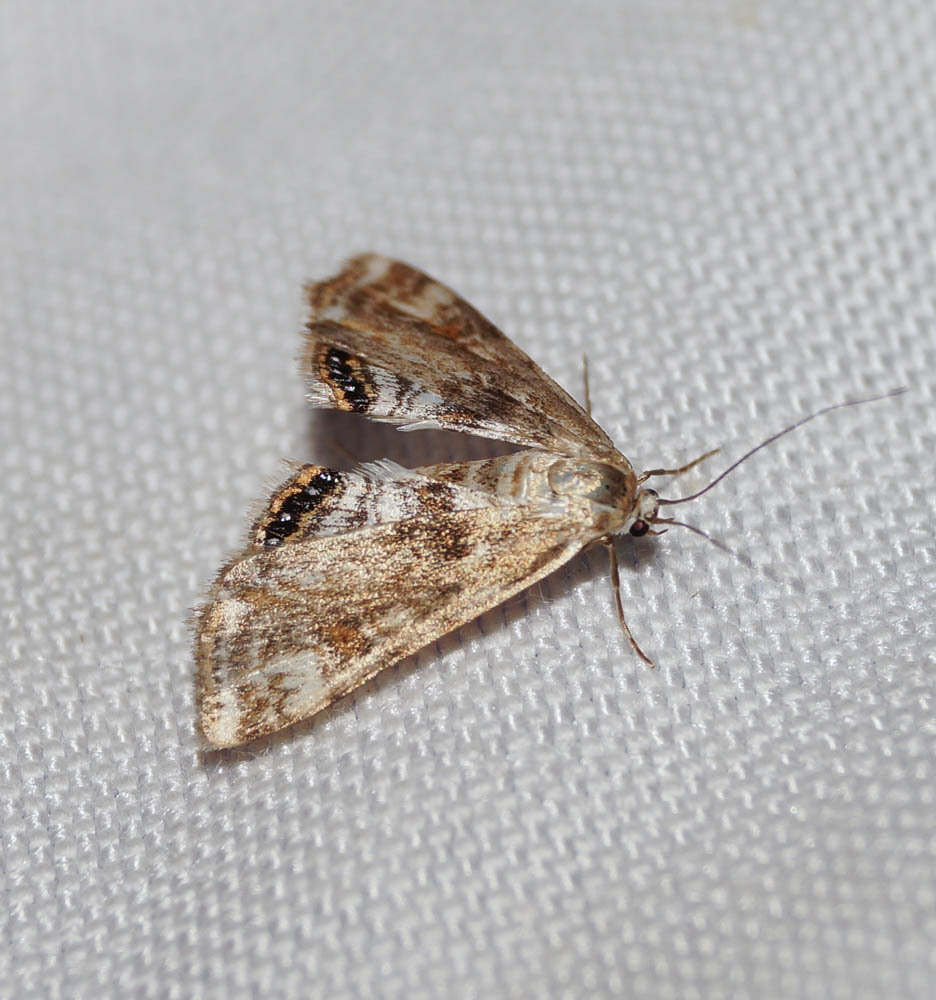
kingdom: Animalia
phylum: Arthropoda
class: Insecta
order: Lepidoptera
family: Crambidae
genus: Cataclysta
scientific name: Cataclysta lemnata
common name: Small china-mark
